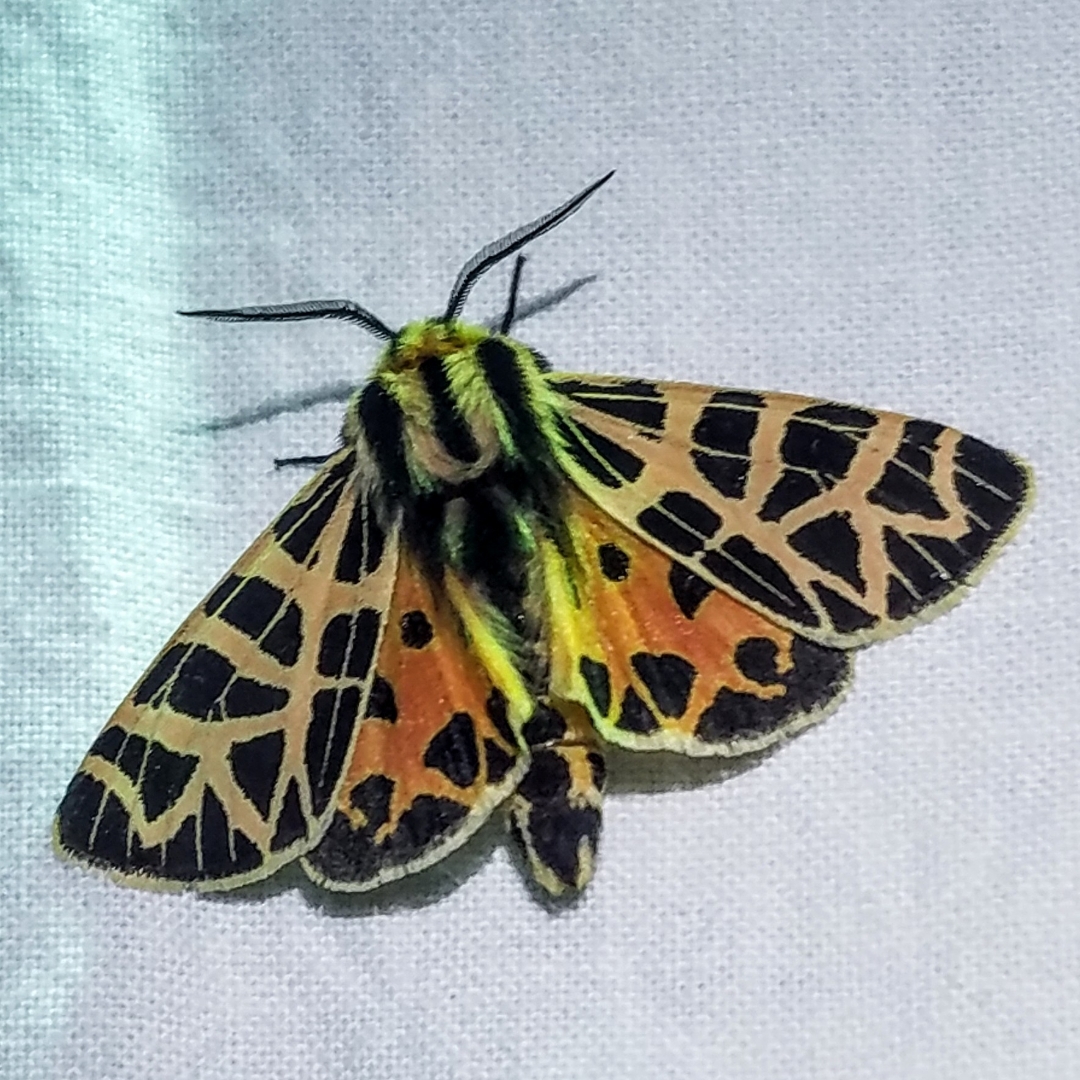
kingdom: Animalia
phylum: Arthropoda
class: Insecta
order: Lepidoptera
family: Erebidae
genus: Apantesis
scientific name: Apantesis
